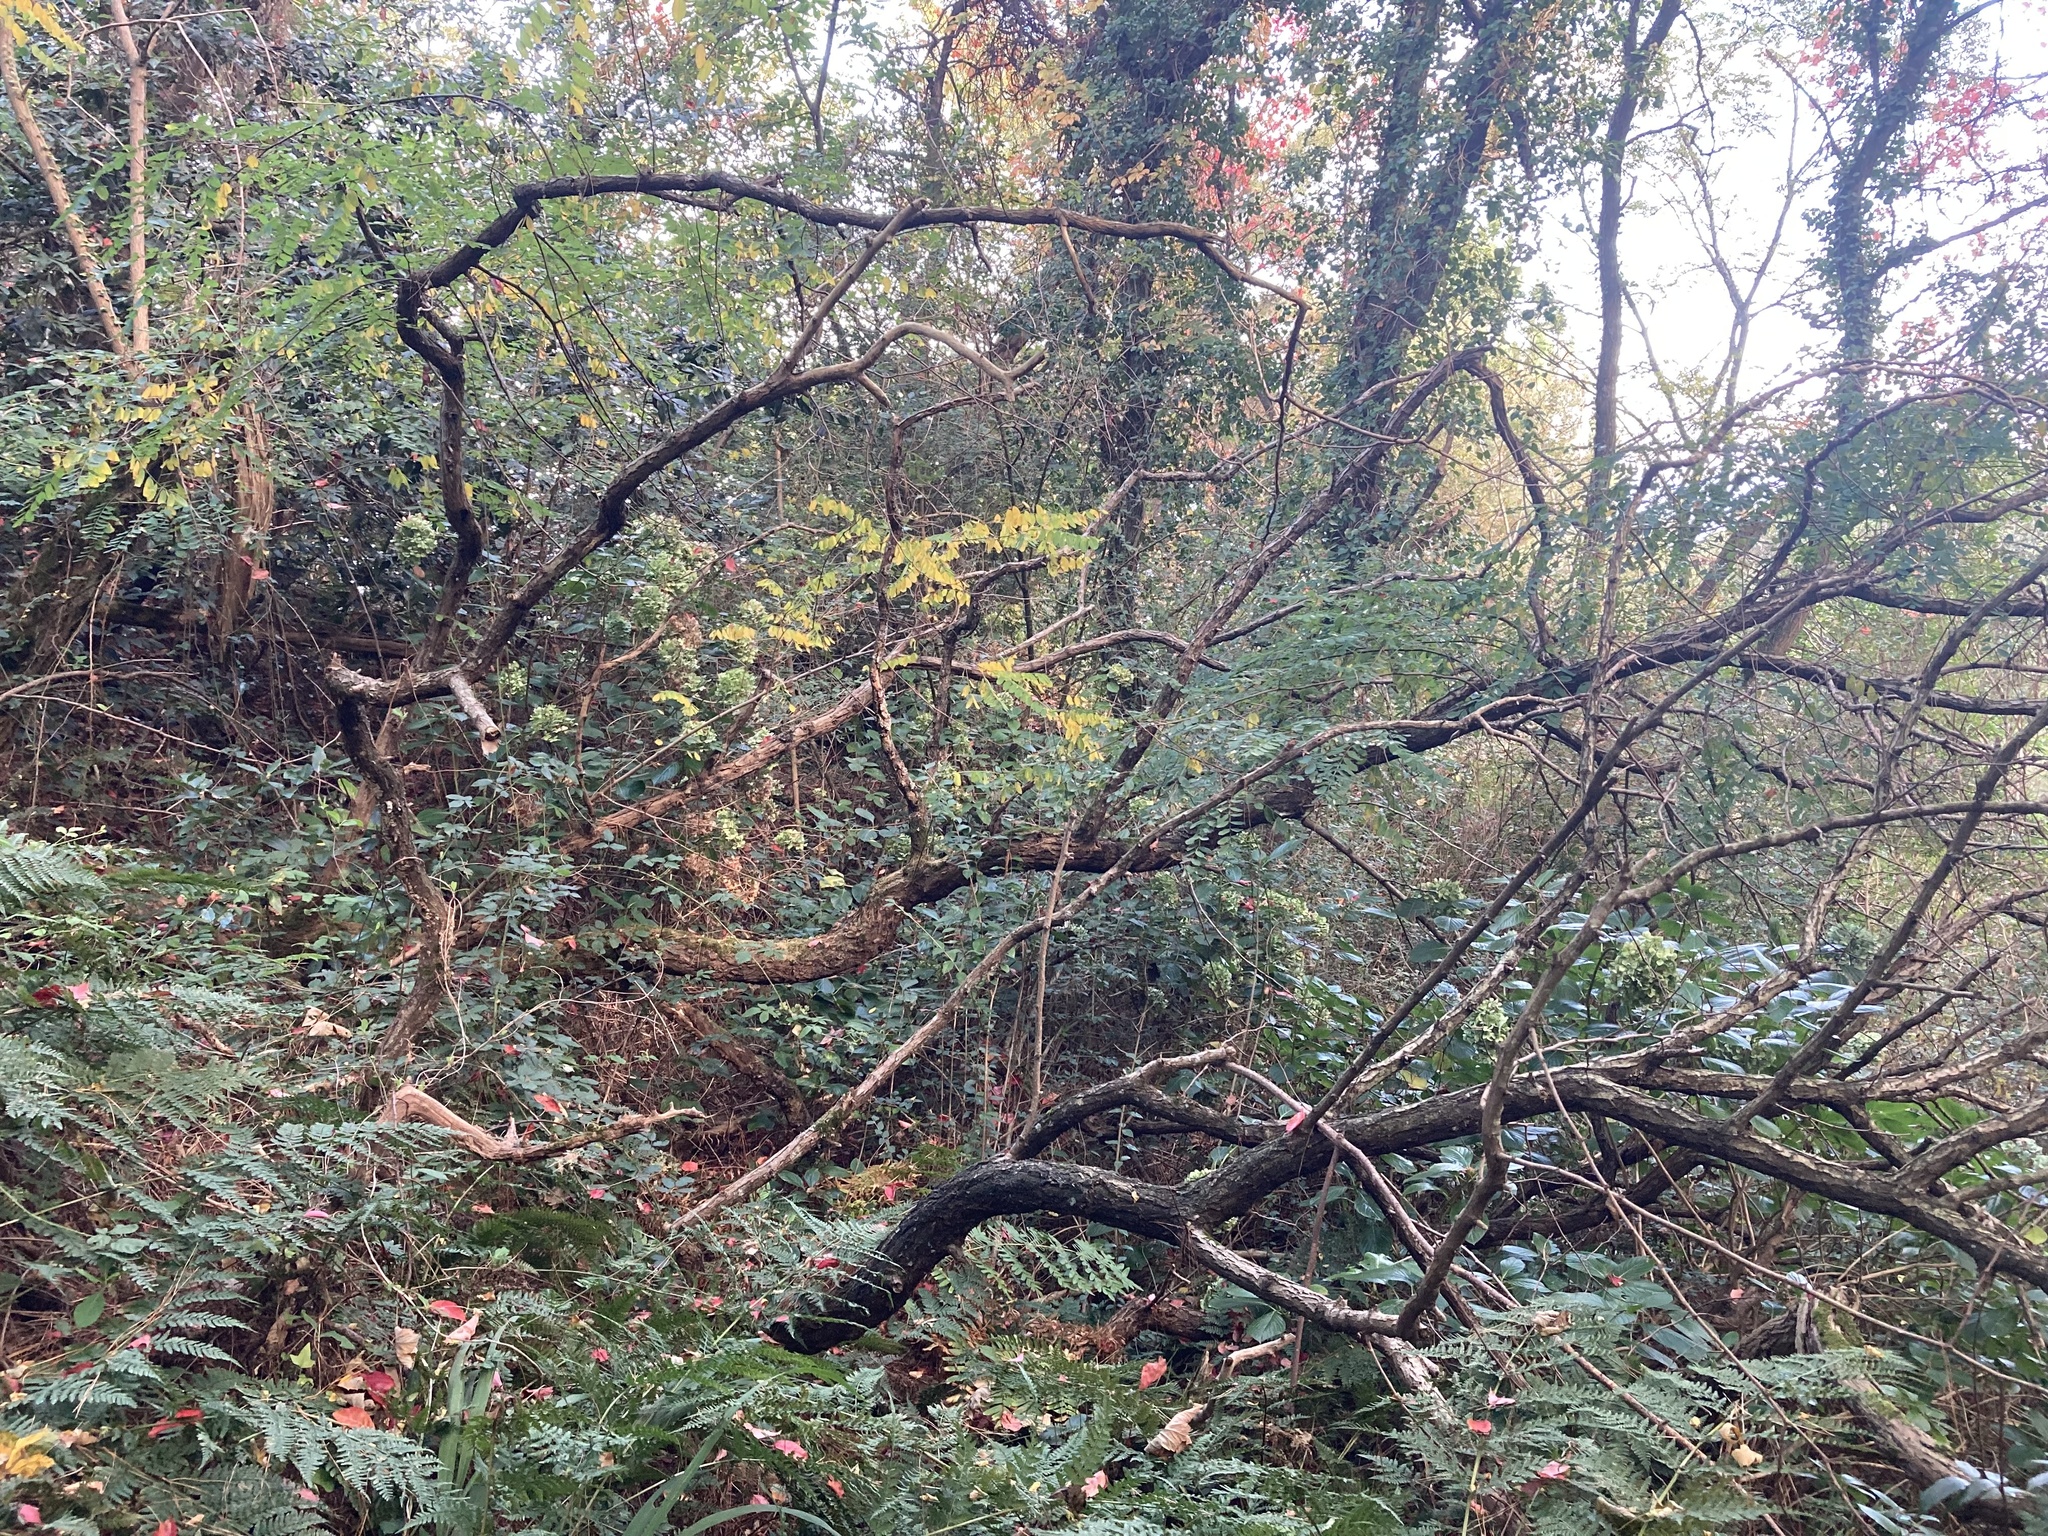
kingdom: Animalia
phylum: Chordata
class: Mammalia
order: Rodentia
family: Sciuridae
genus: Sciurus
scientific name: Sciurus vulgaris
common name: Eurasian red squirrel
